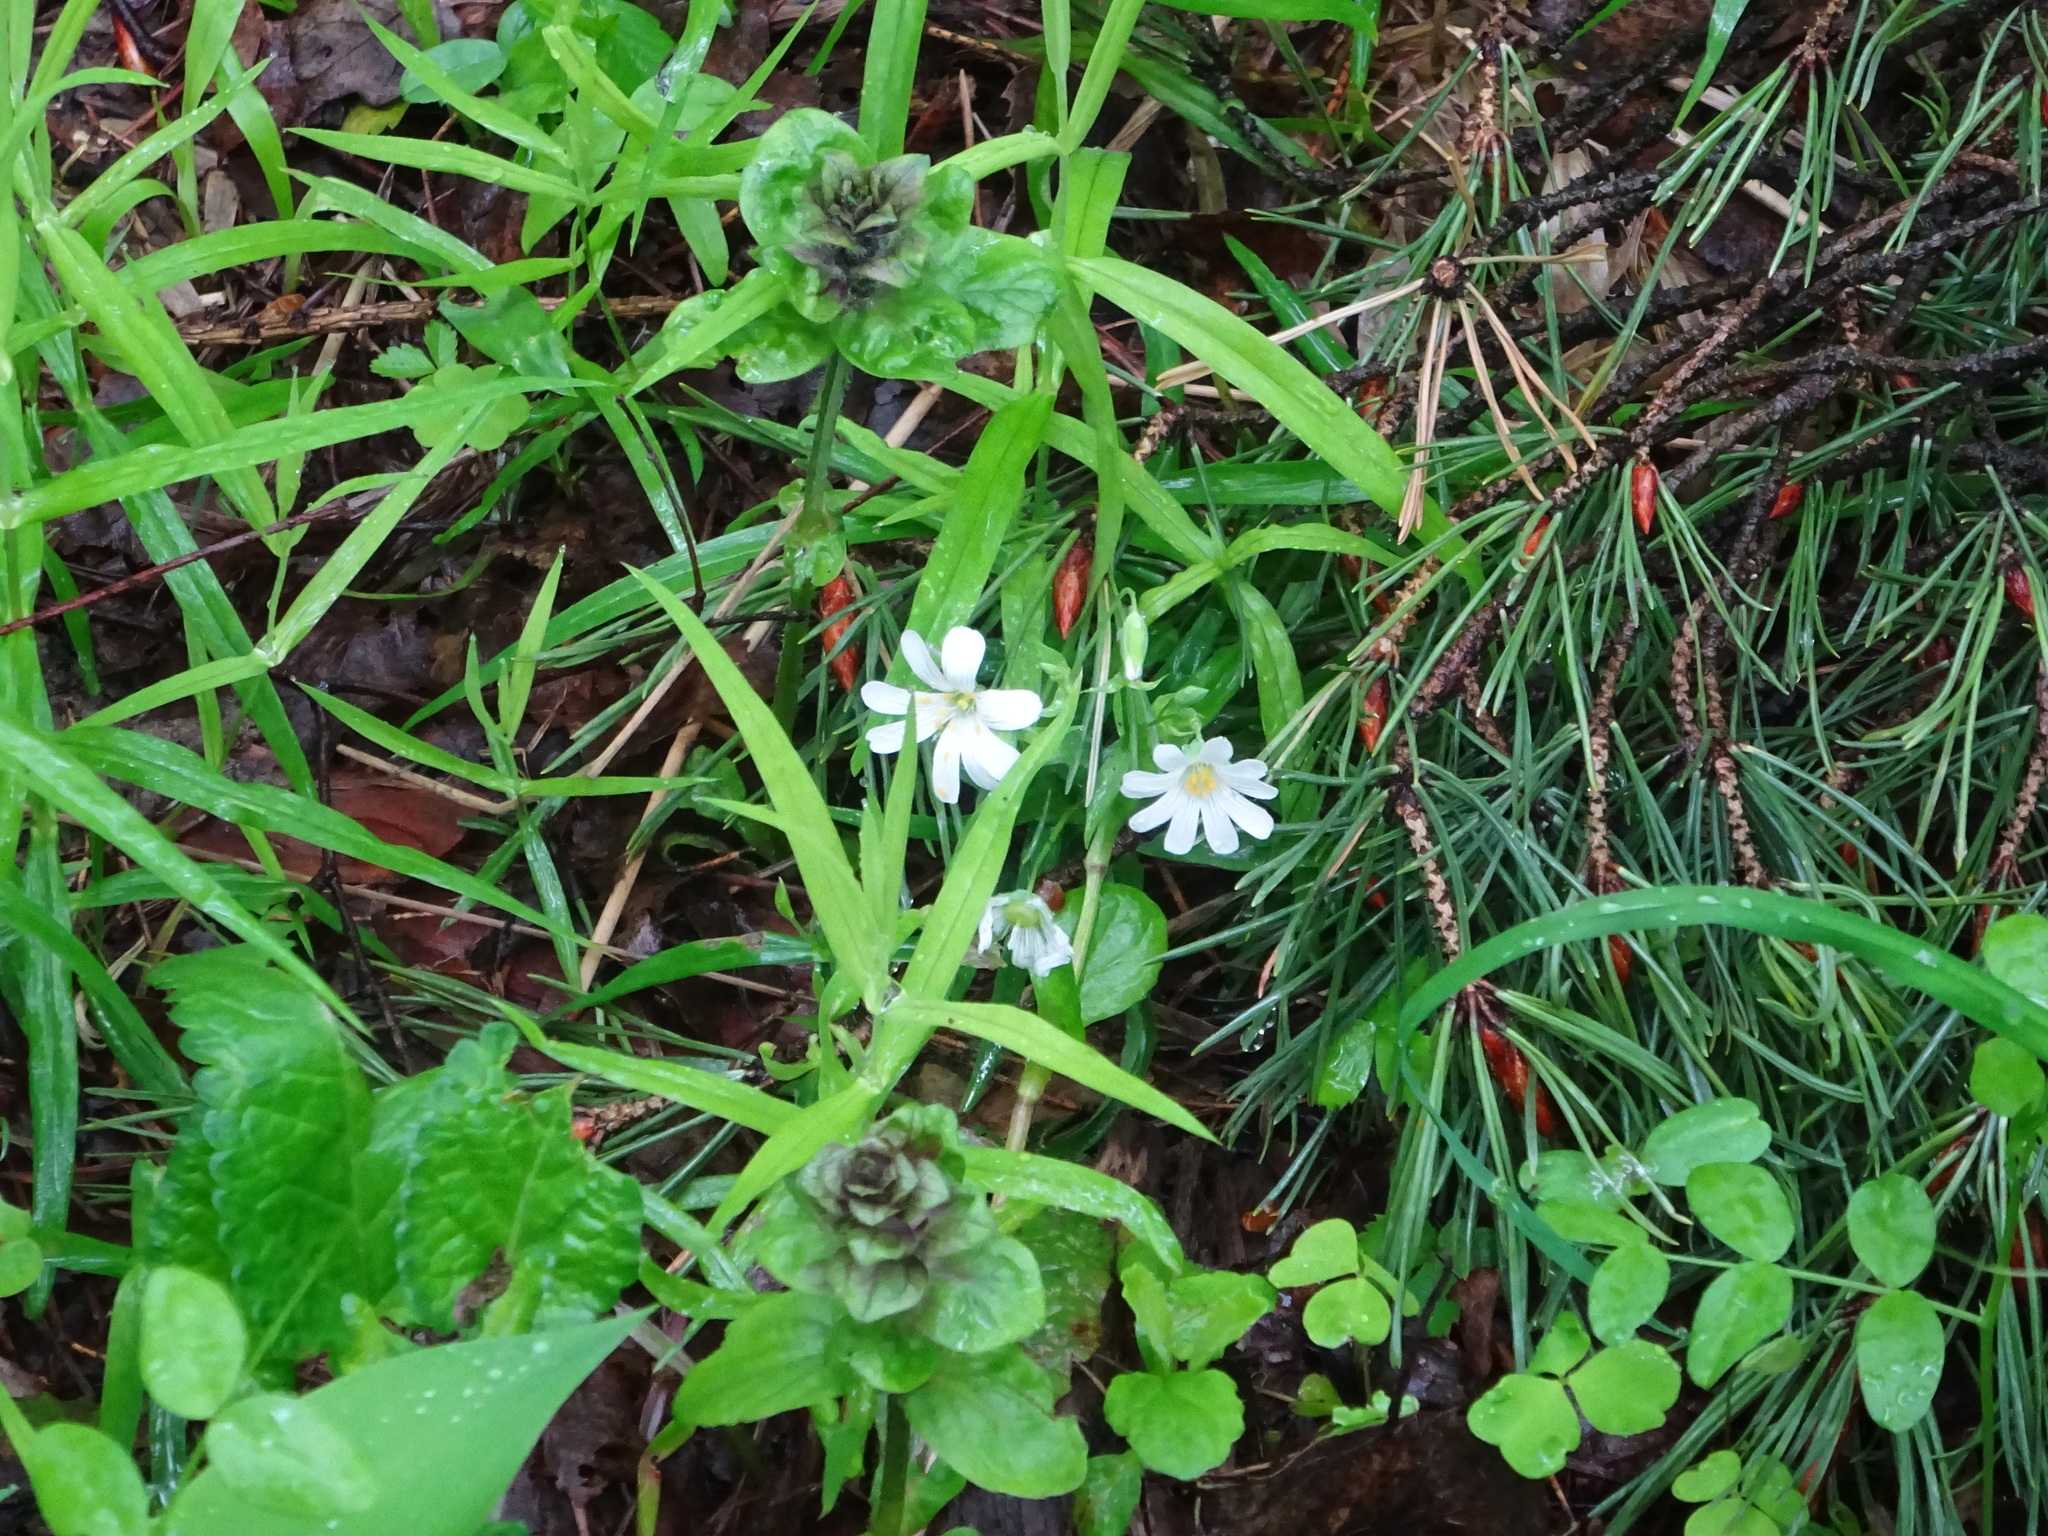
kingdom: Plantae
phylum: Tracheophyta
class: Magnoliopsida
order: Caryophyllales
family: Caryophyllaceae
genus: Rabelera
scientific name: Rabelera holostea
